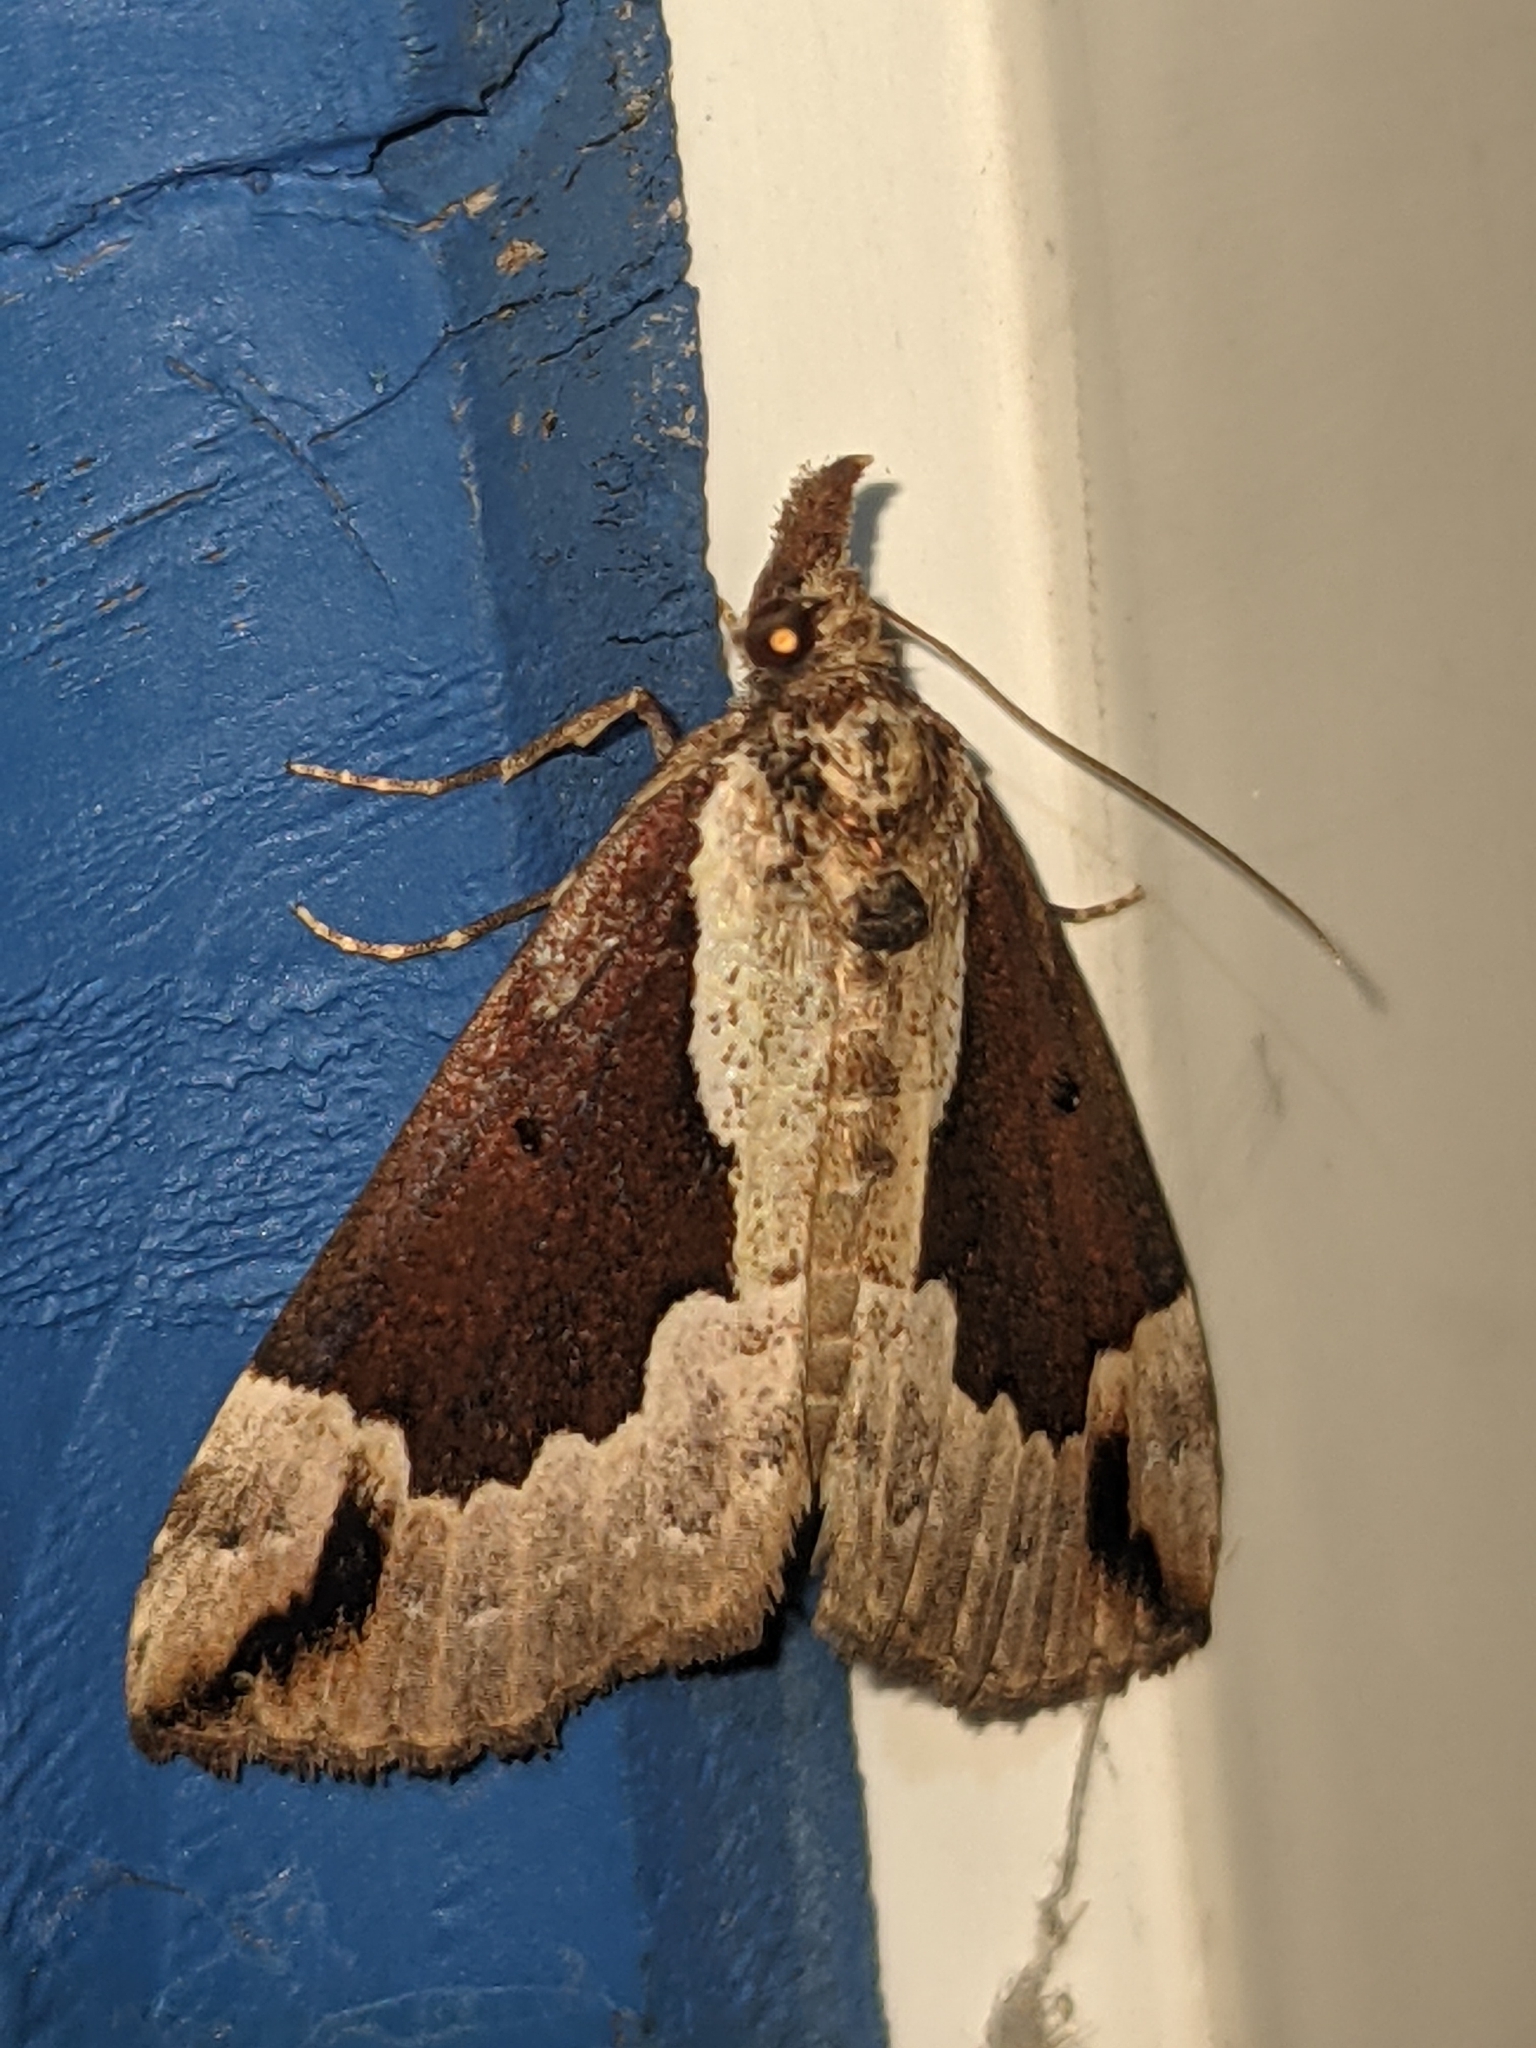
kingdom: Animalia
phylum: Arthropoda
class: Insecta
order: Lepidoptera
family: Erebidae
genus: Hypena
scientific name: Hypena baltimoralis
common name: Baltimore snout
